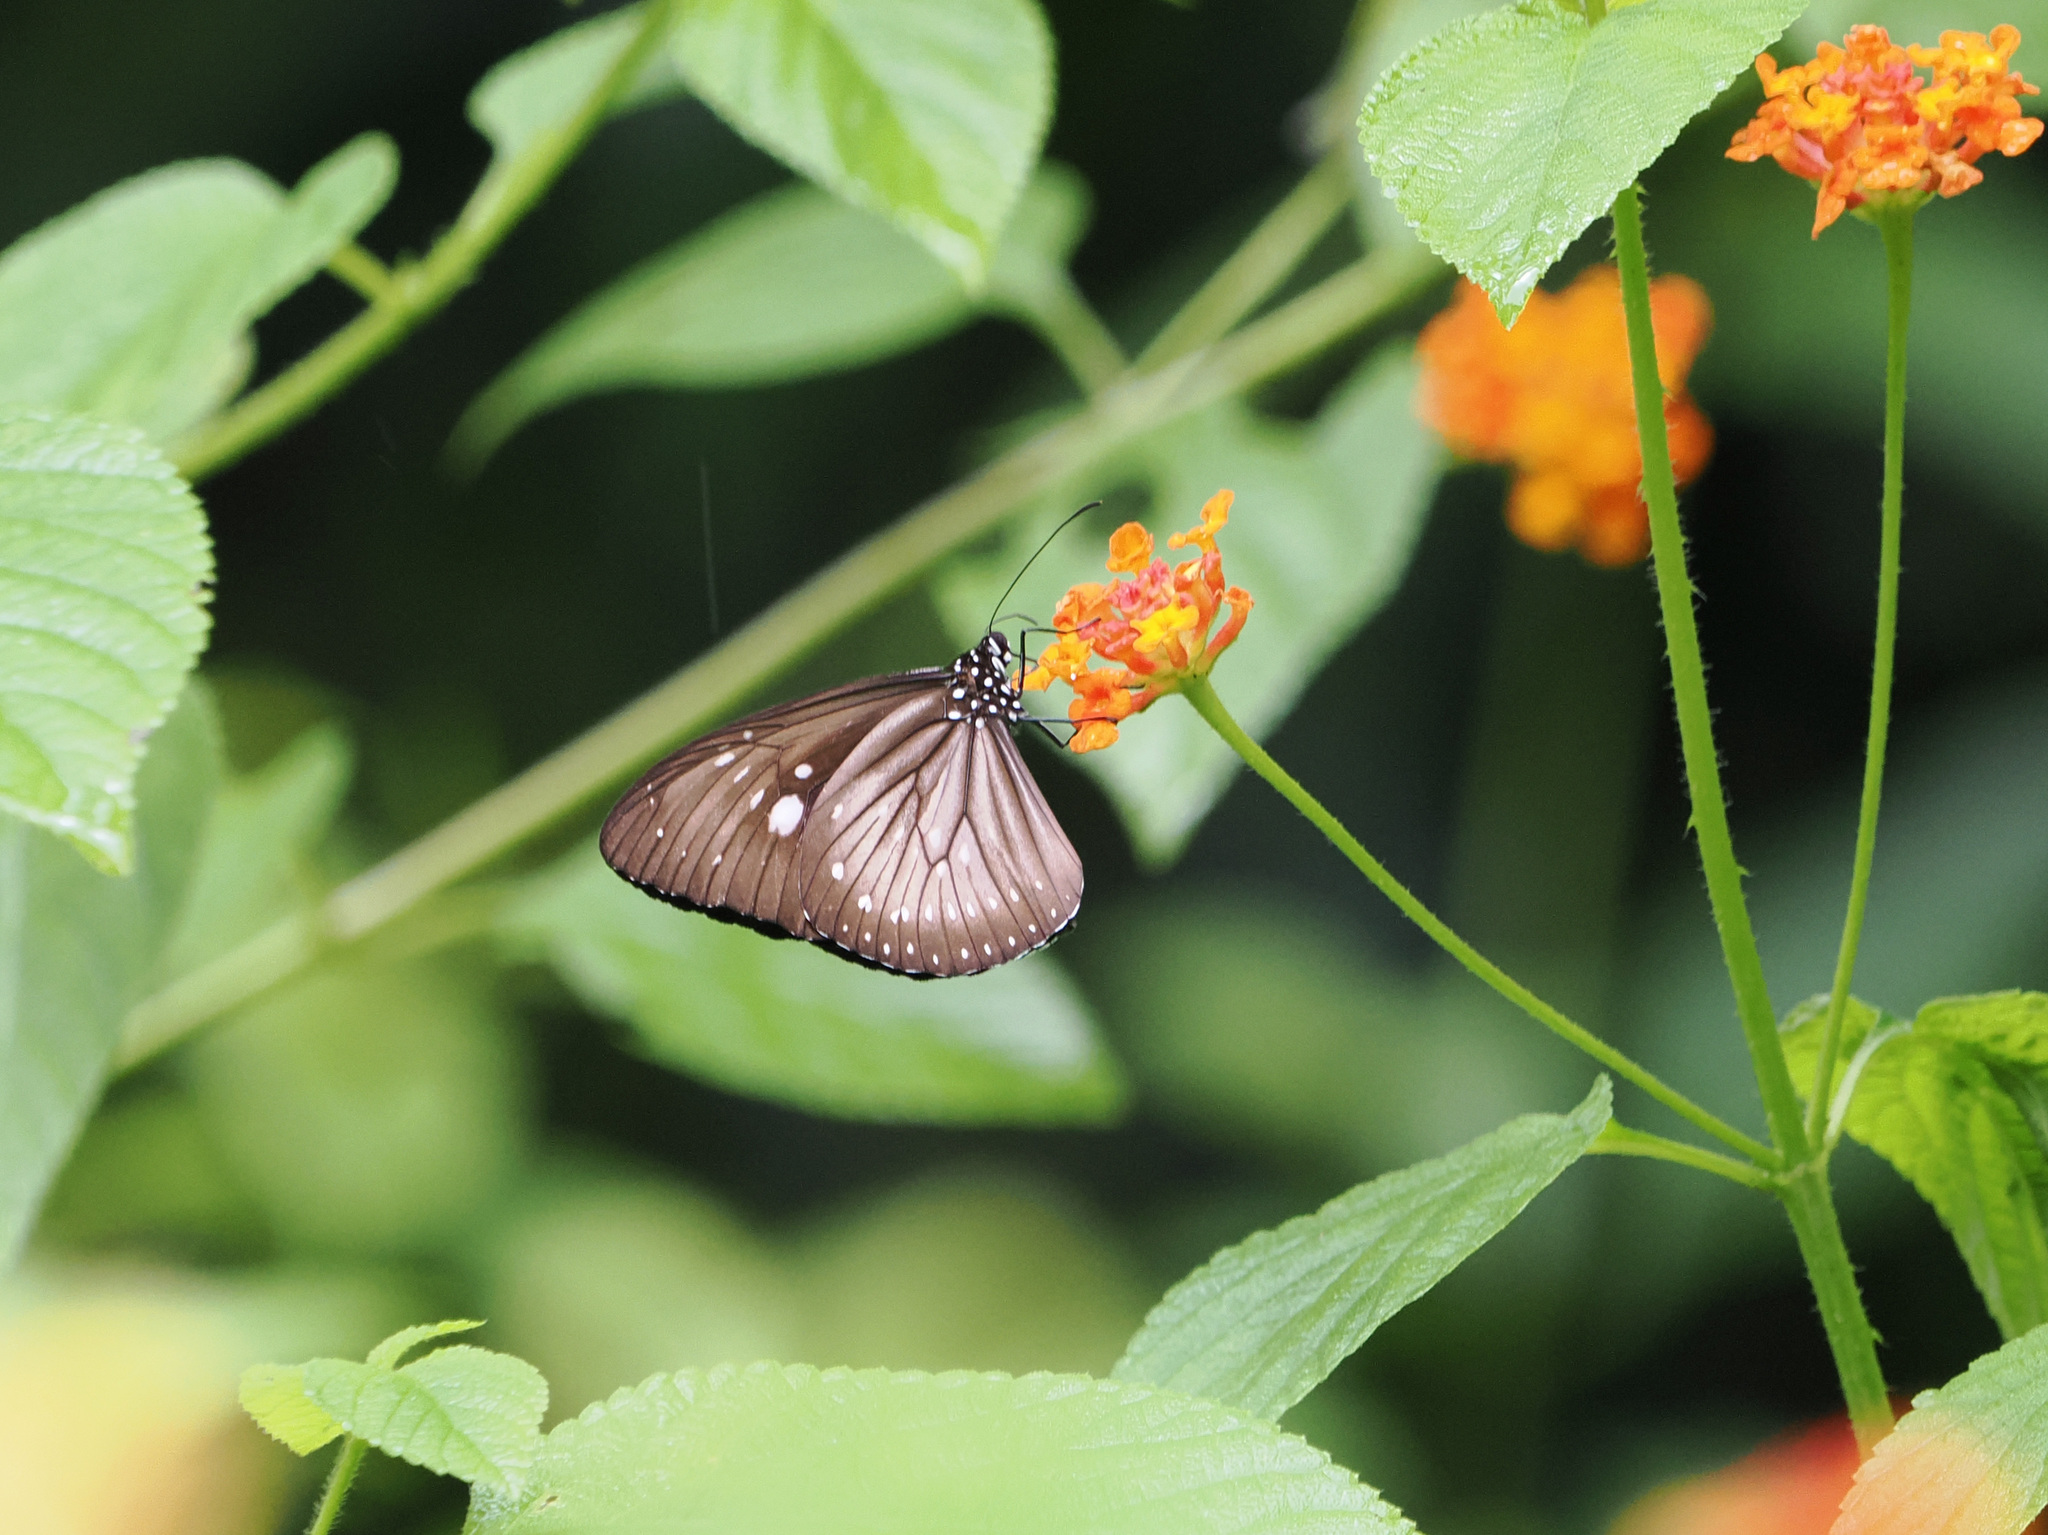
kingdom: Animalia
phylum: Arthropoda
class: Insecta
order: Lepidoptera
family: Nymphalidae
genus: Euploea
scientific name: Euploea algea
